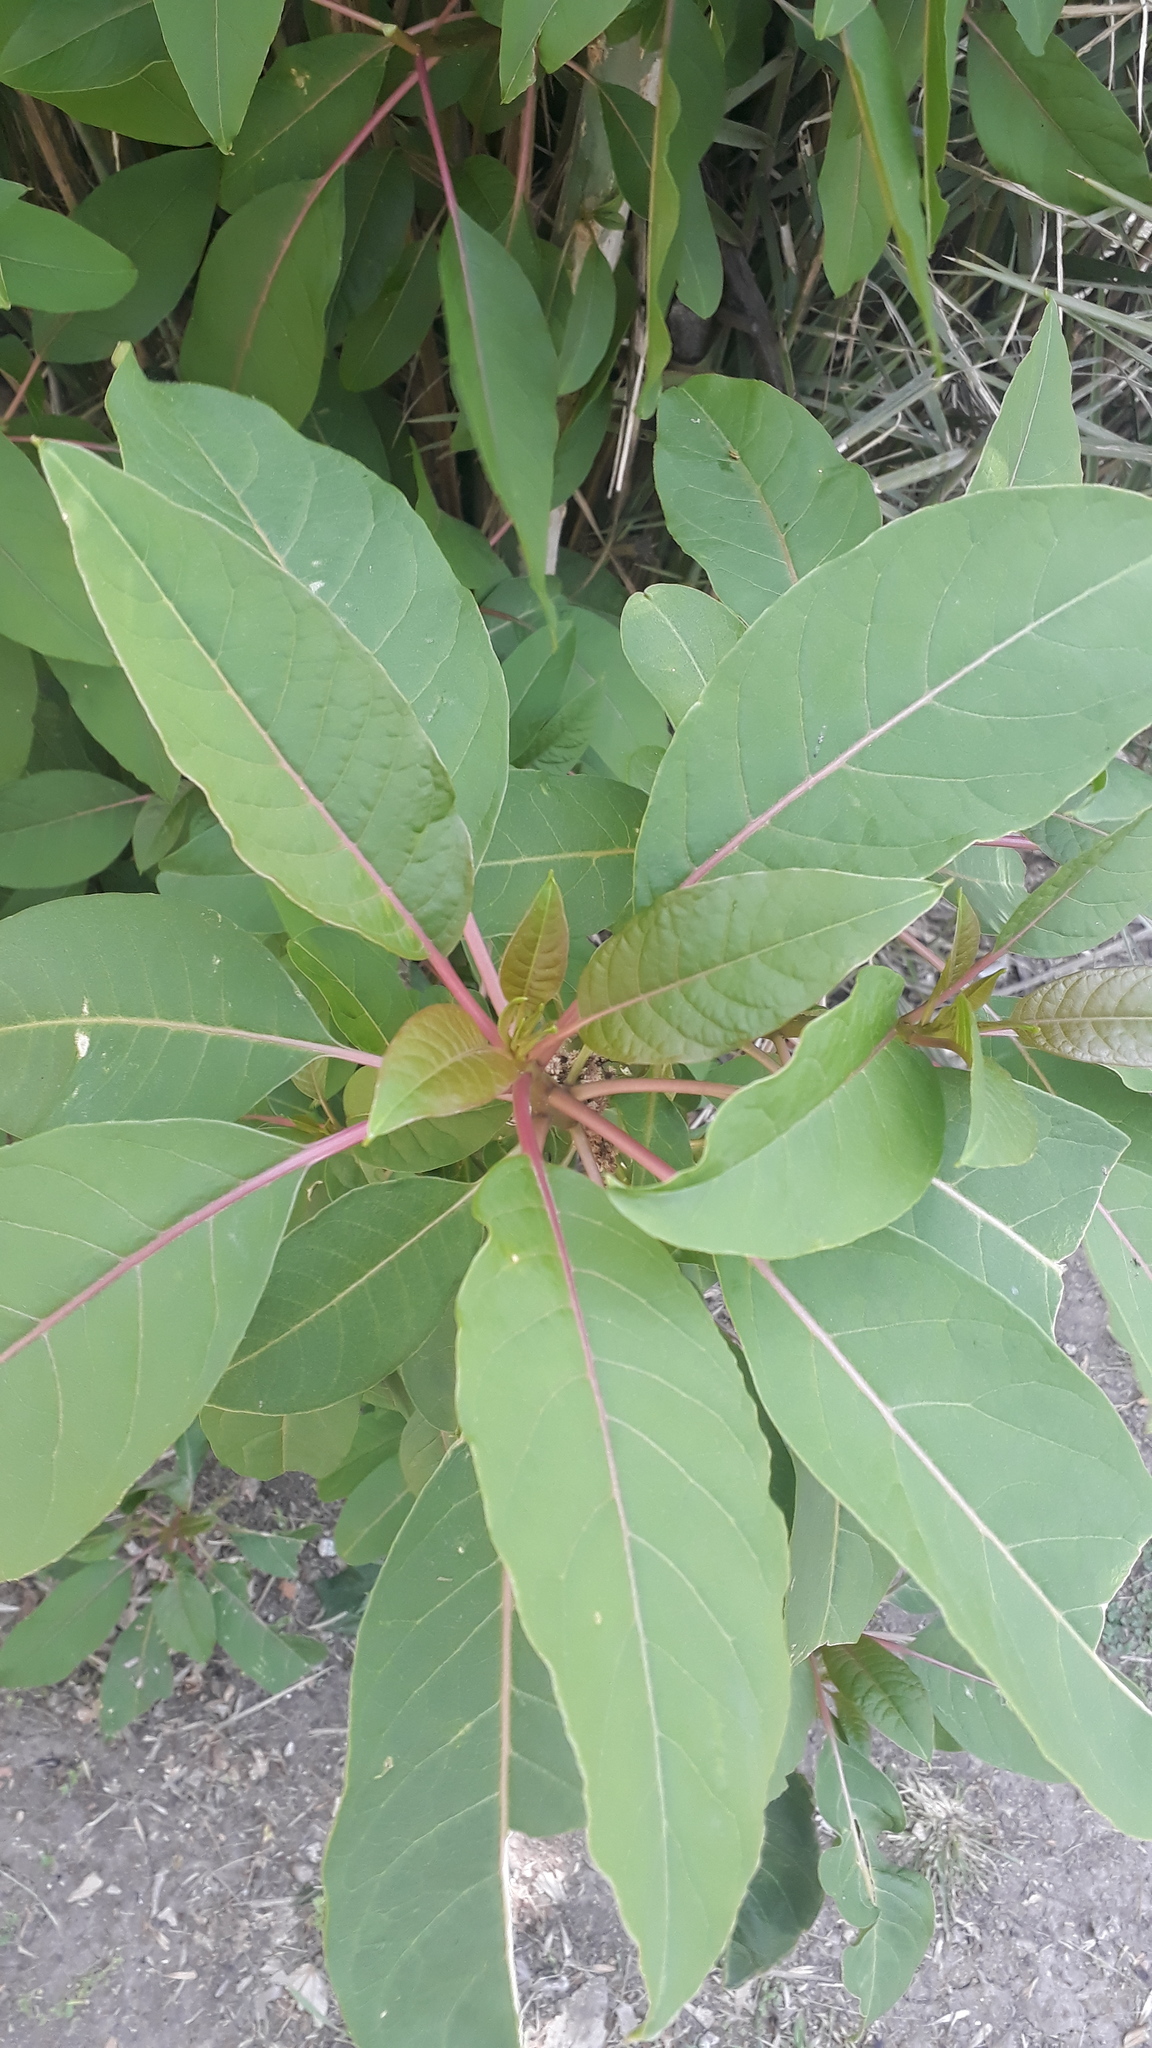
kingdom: Plantae
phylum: Tracheophyta
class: Magnoliopsida
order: Caryophyllales
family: Phytolaccaceae
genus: Phytolacca
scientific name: Phytolacca dioica
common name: Pokeweed
